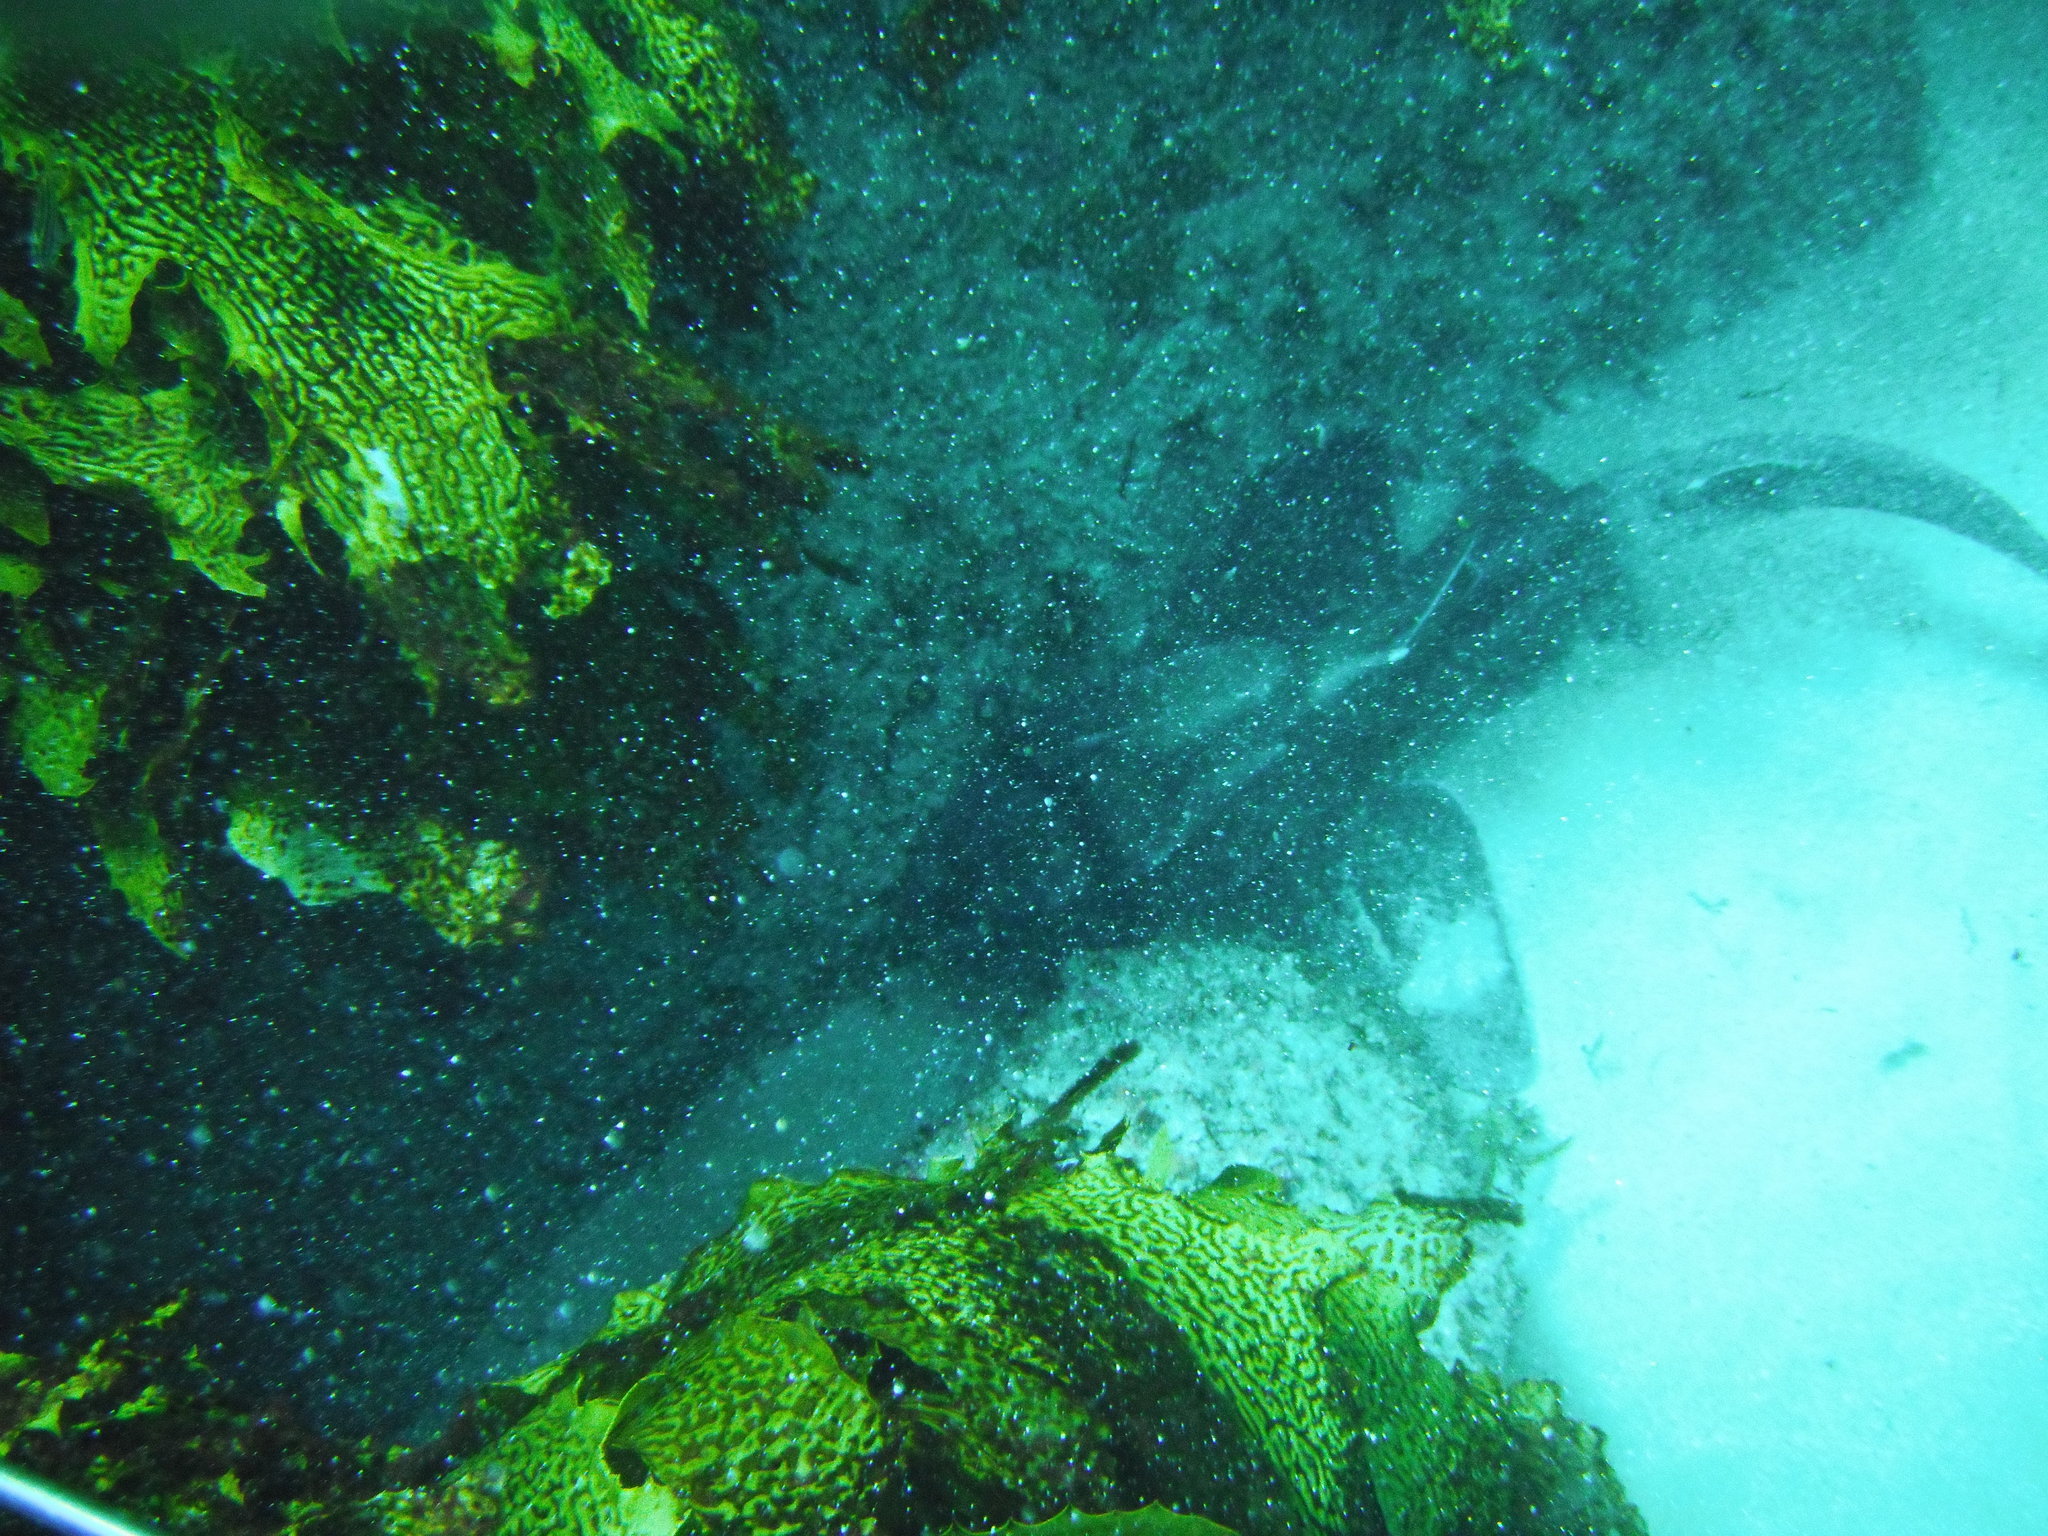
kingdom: Animalia
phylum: Chordata
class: Elasmobranchii
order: Heterodontiformes
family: Heterodontidae
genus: Heterodontus
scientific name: Heterodontus portusjacksoni
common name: Port jackson shark
